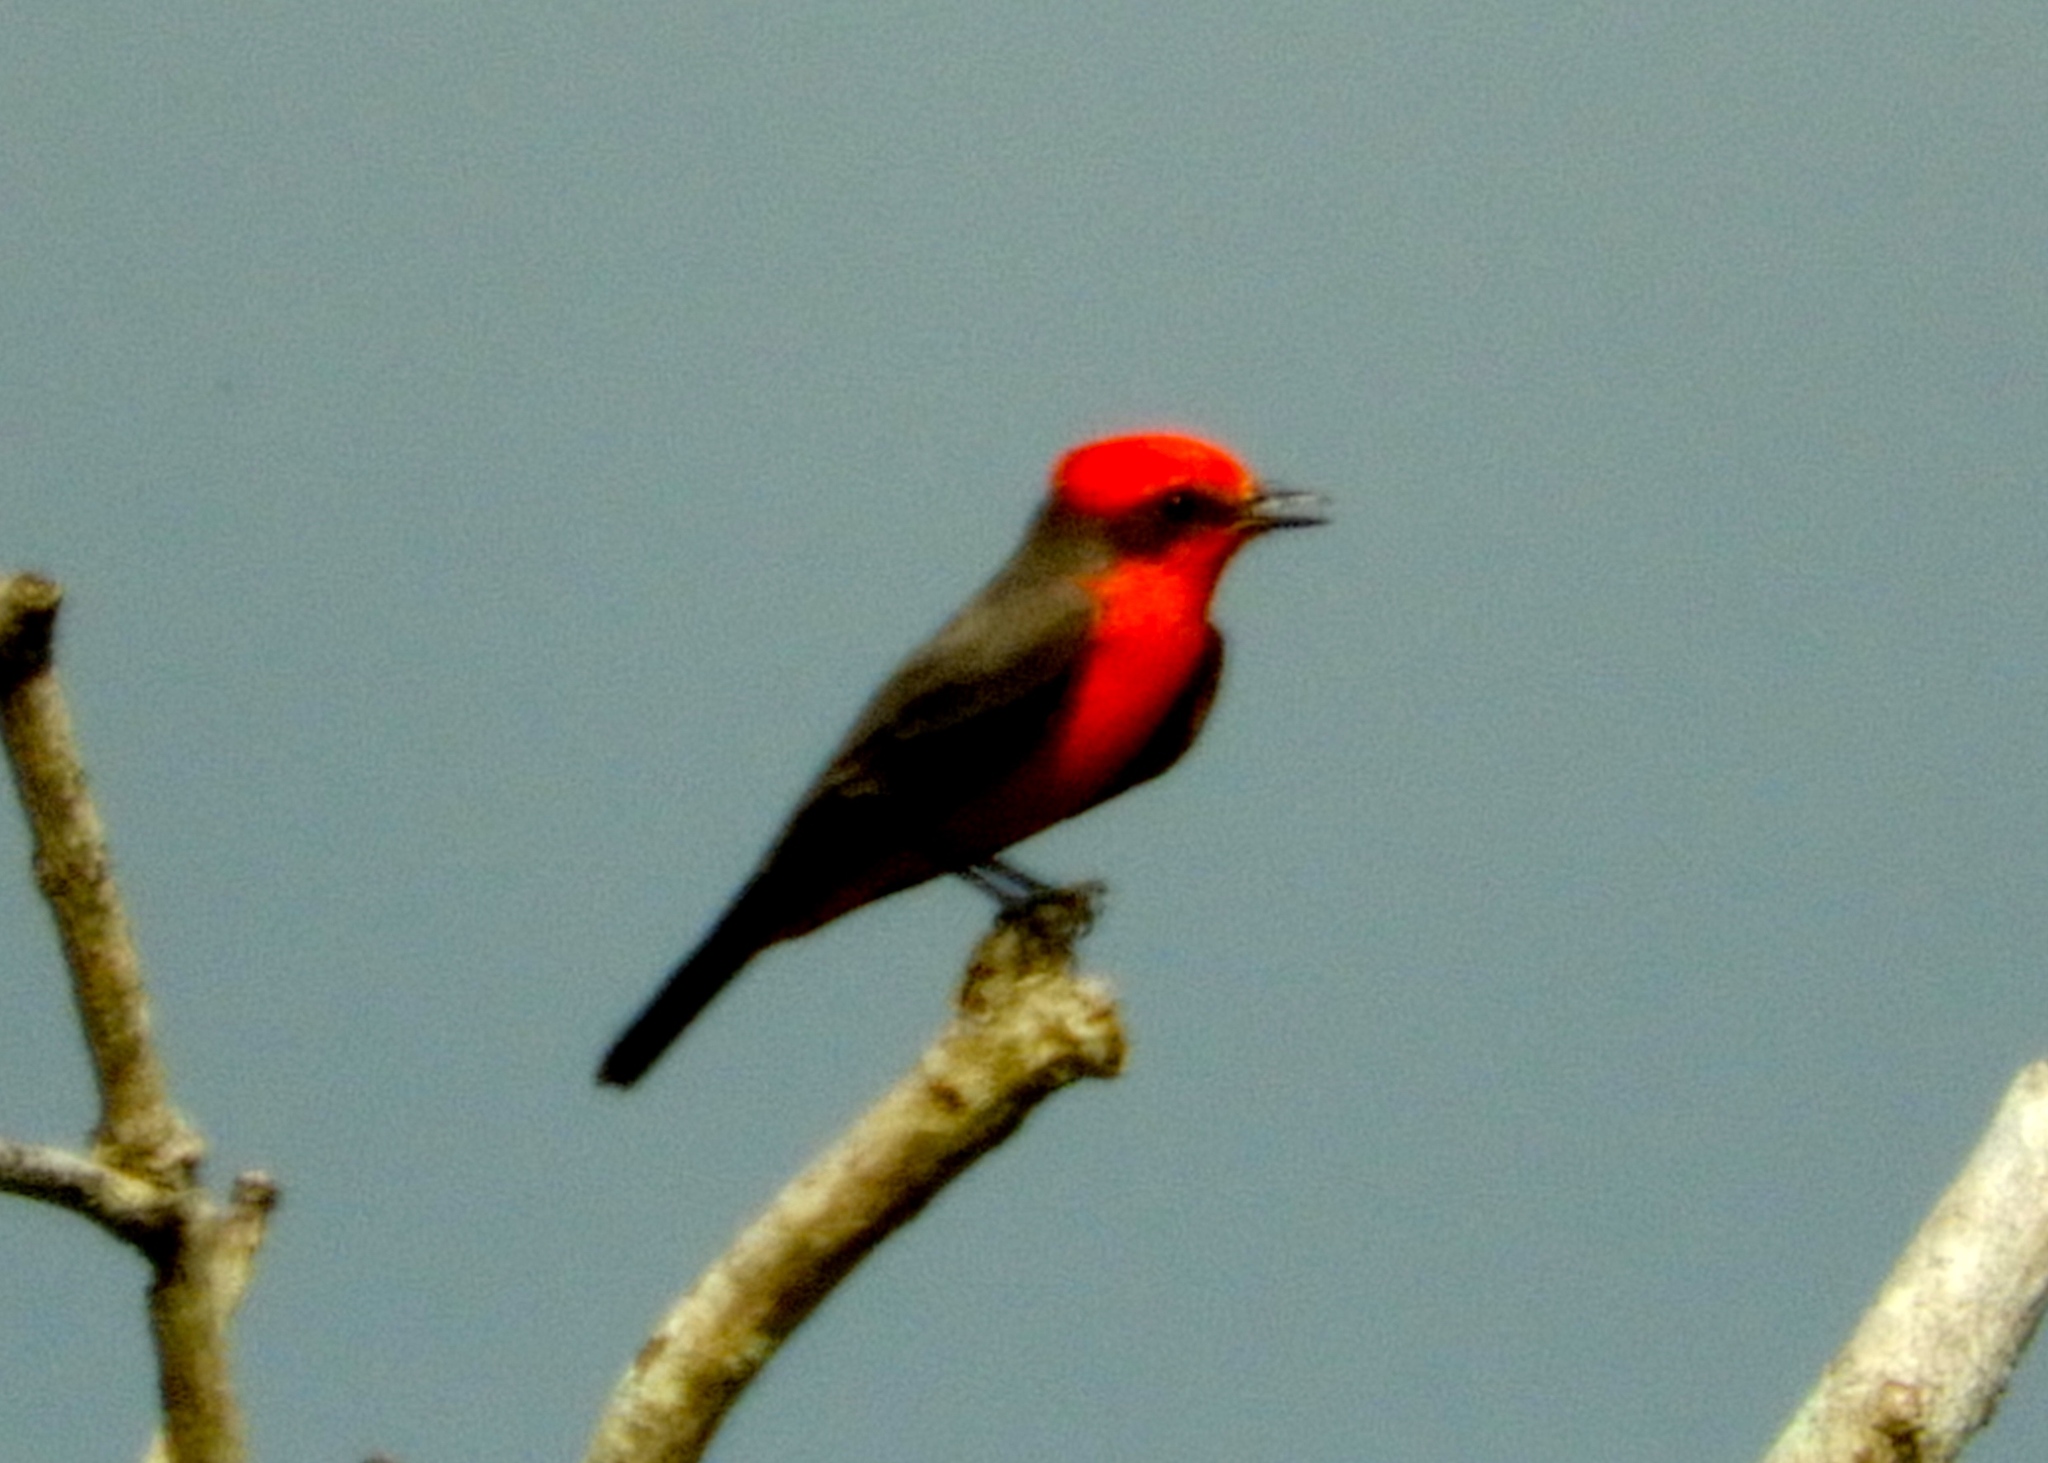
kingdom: Animalia
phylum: Chordata
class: Aves
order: Passeriformes
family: Tyrannidae
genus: Pyrocephalus
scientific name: Pyrocephalus rubinus
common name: Vermilion flycatcher
